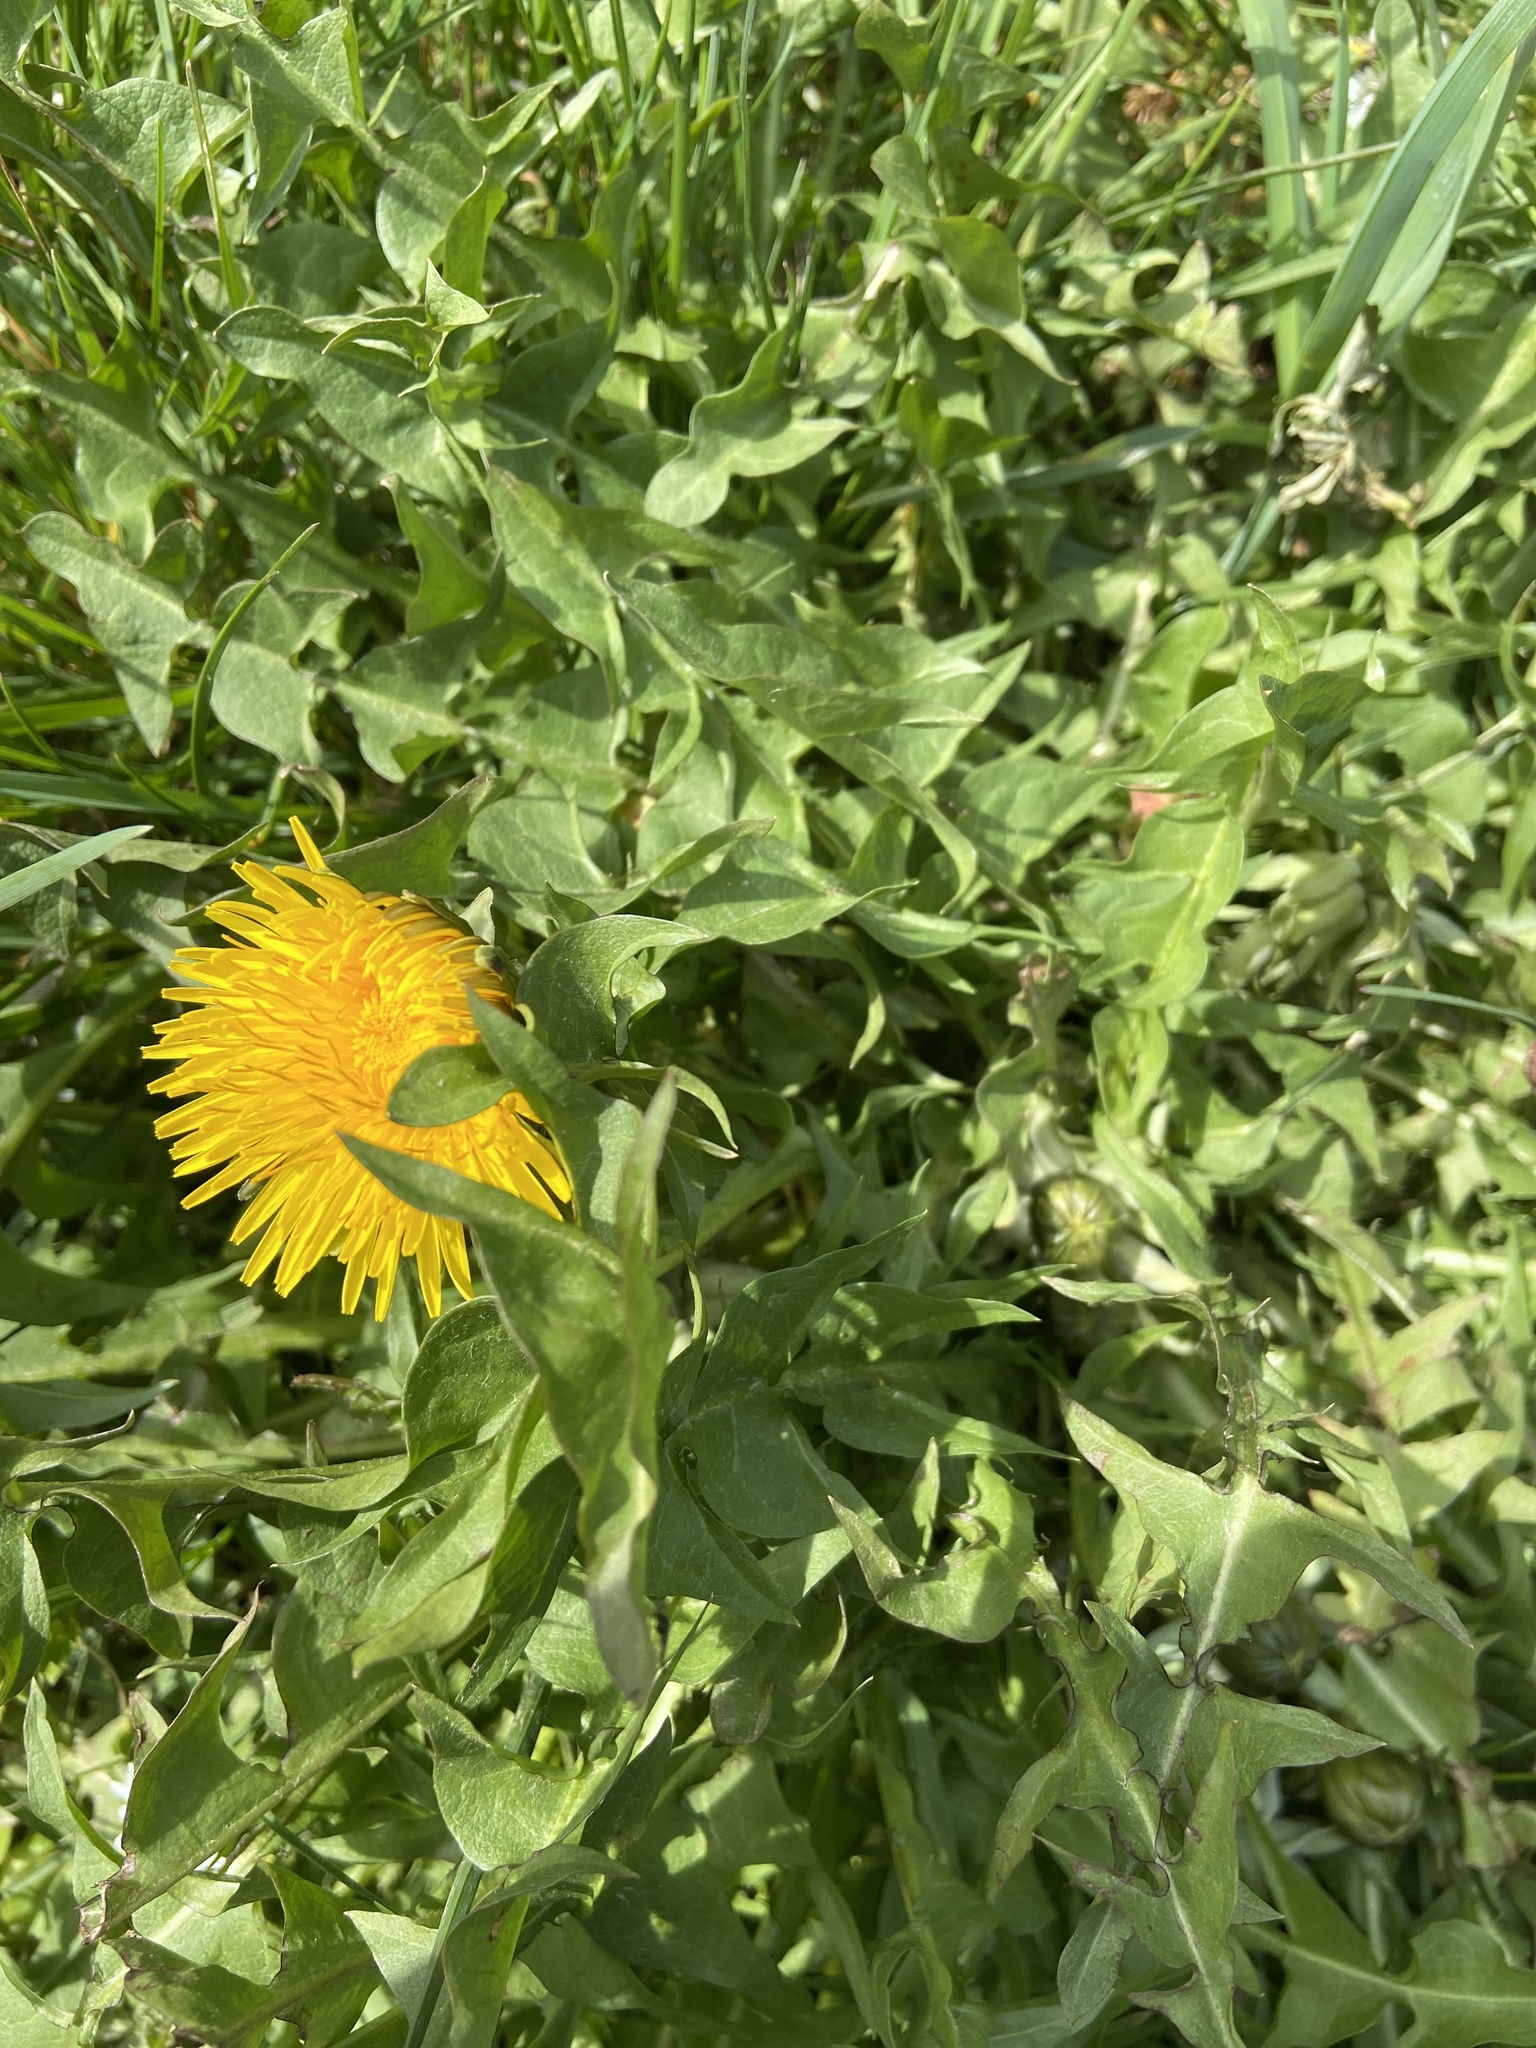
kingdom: Plantae
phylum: Tracheophyta
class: Magnoliopsida
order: Asterales
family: Asteraceae
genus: Taraxacum
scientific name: Taraxacum officinale
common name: Common dandelion
